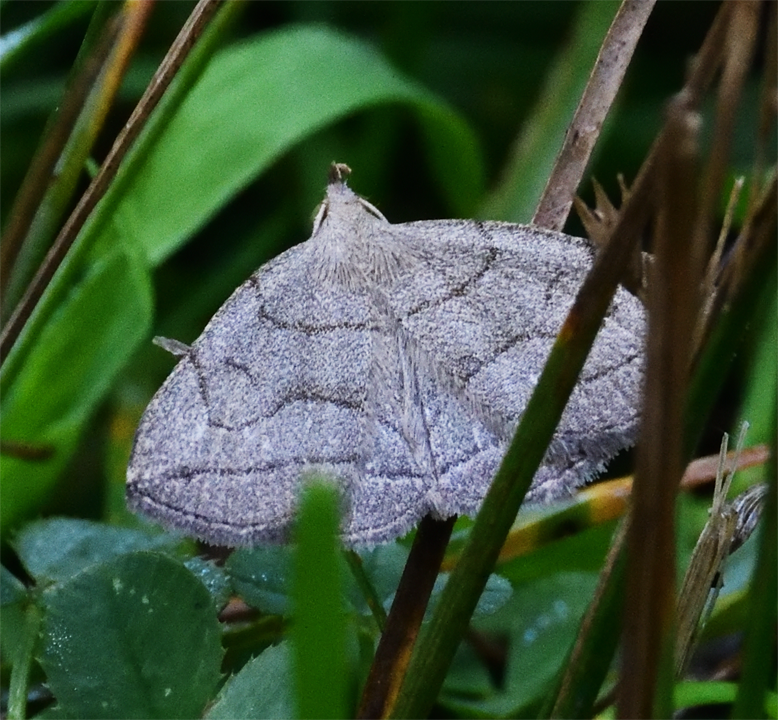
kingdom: Animalia
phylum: Arthropoda
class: Insecta
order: Lepidoptera
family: Erebidae
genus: Zanclognatha
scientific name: Zanclognatha pedipilalis
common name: Grayish fan-foot
